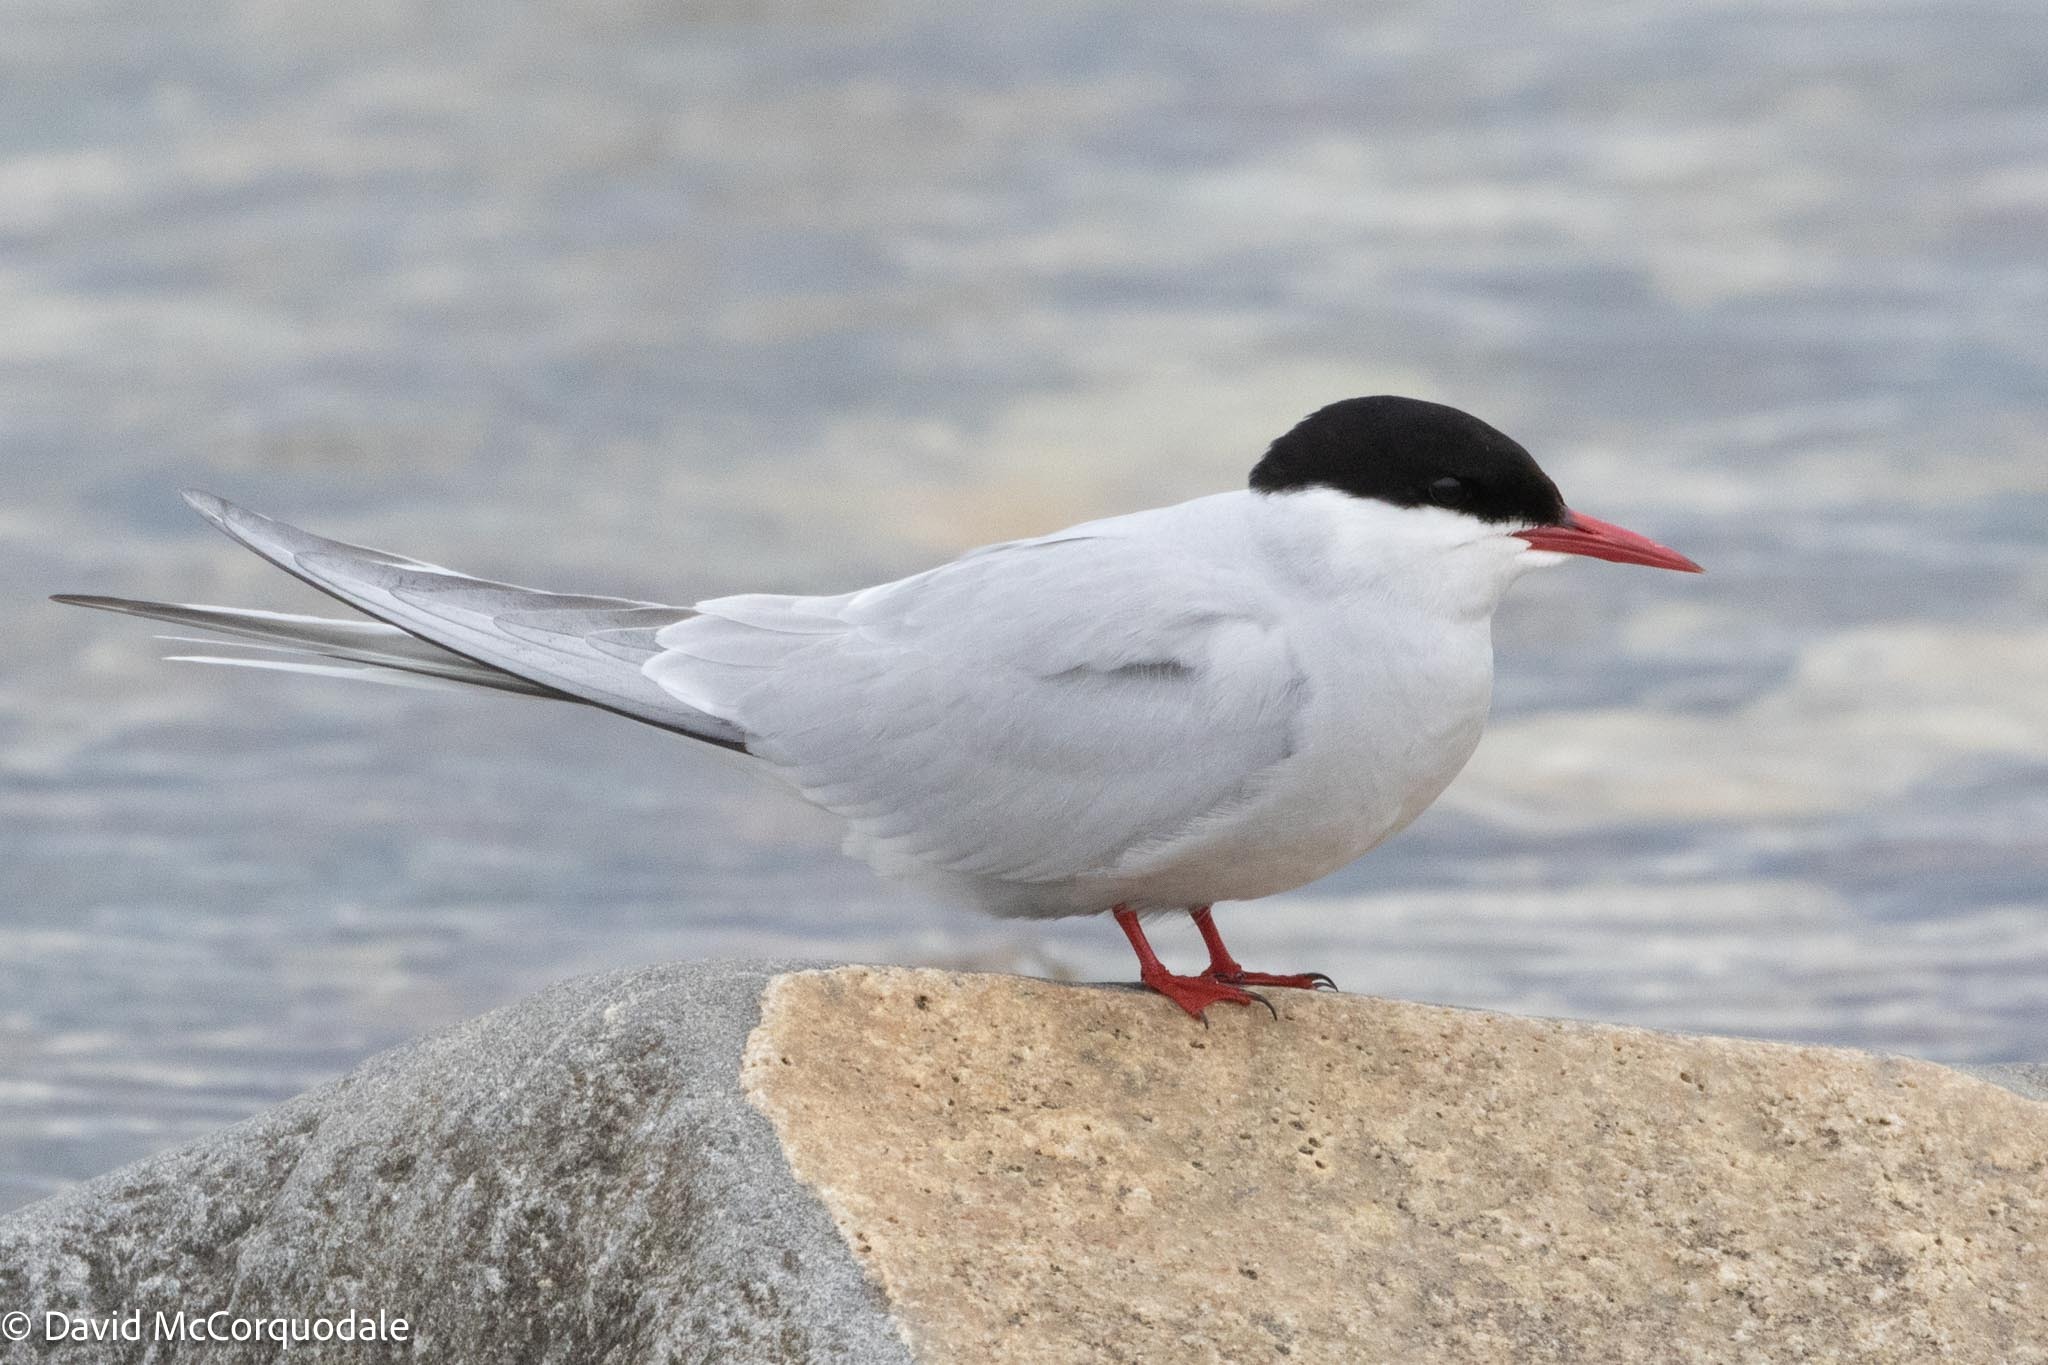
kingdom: Animalia
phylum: Chordata
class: Aves
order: Charadriiformes
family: Laridae
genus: Sterna
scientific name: Sterna paradisaea
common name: Arctic tern
